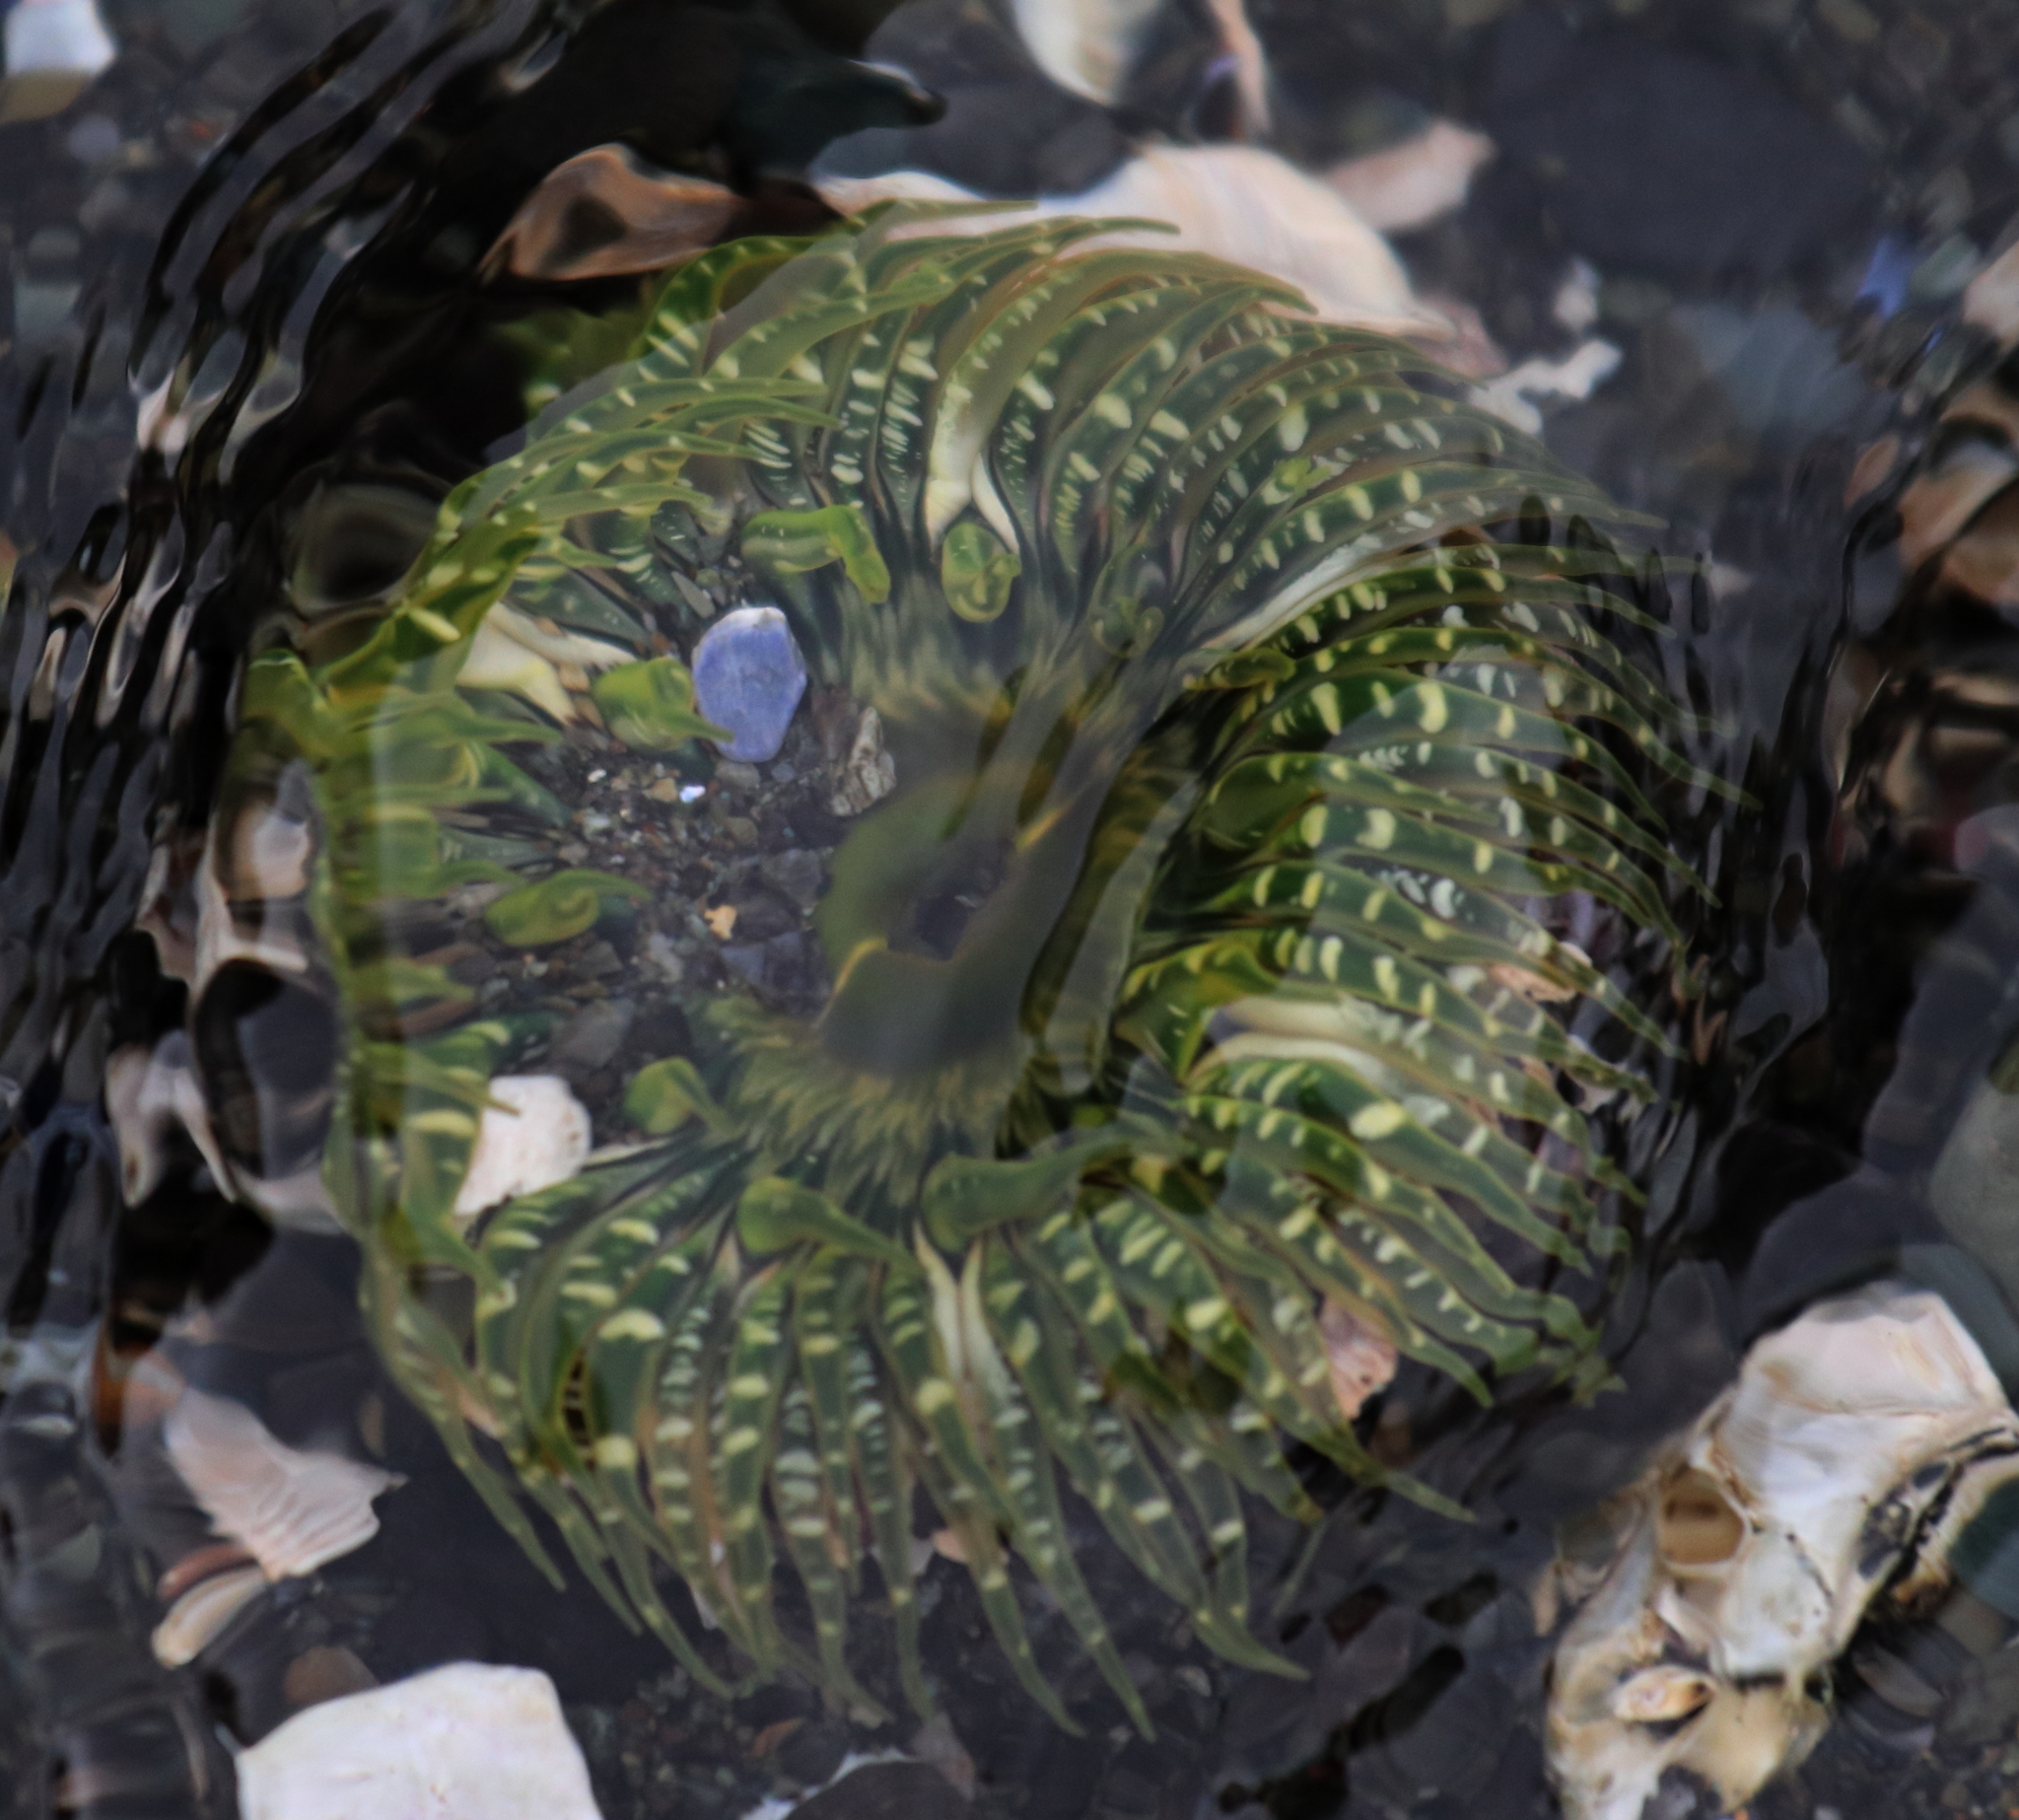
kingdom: Animalia
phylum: Cnidaria
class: Anthozoa
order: Actiniaria
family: Actiniidae
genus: Anthopleura
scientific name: Anthopleura artemisia
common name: Buried sea anemone
